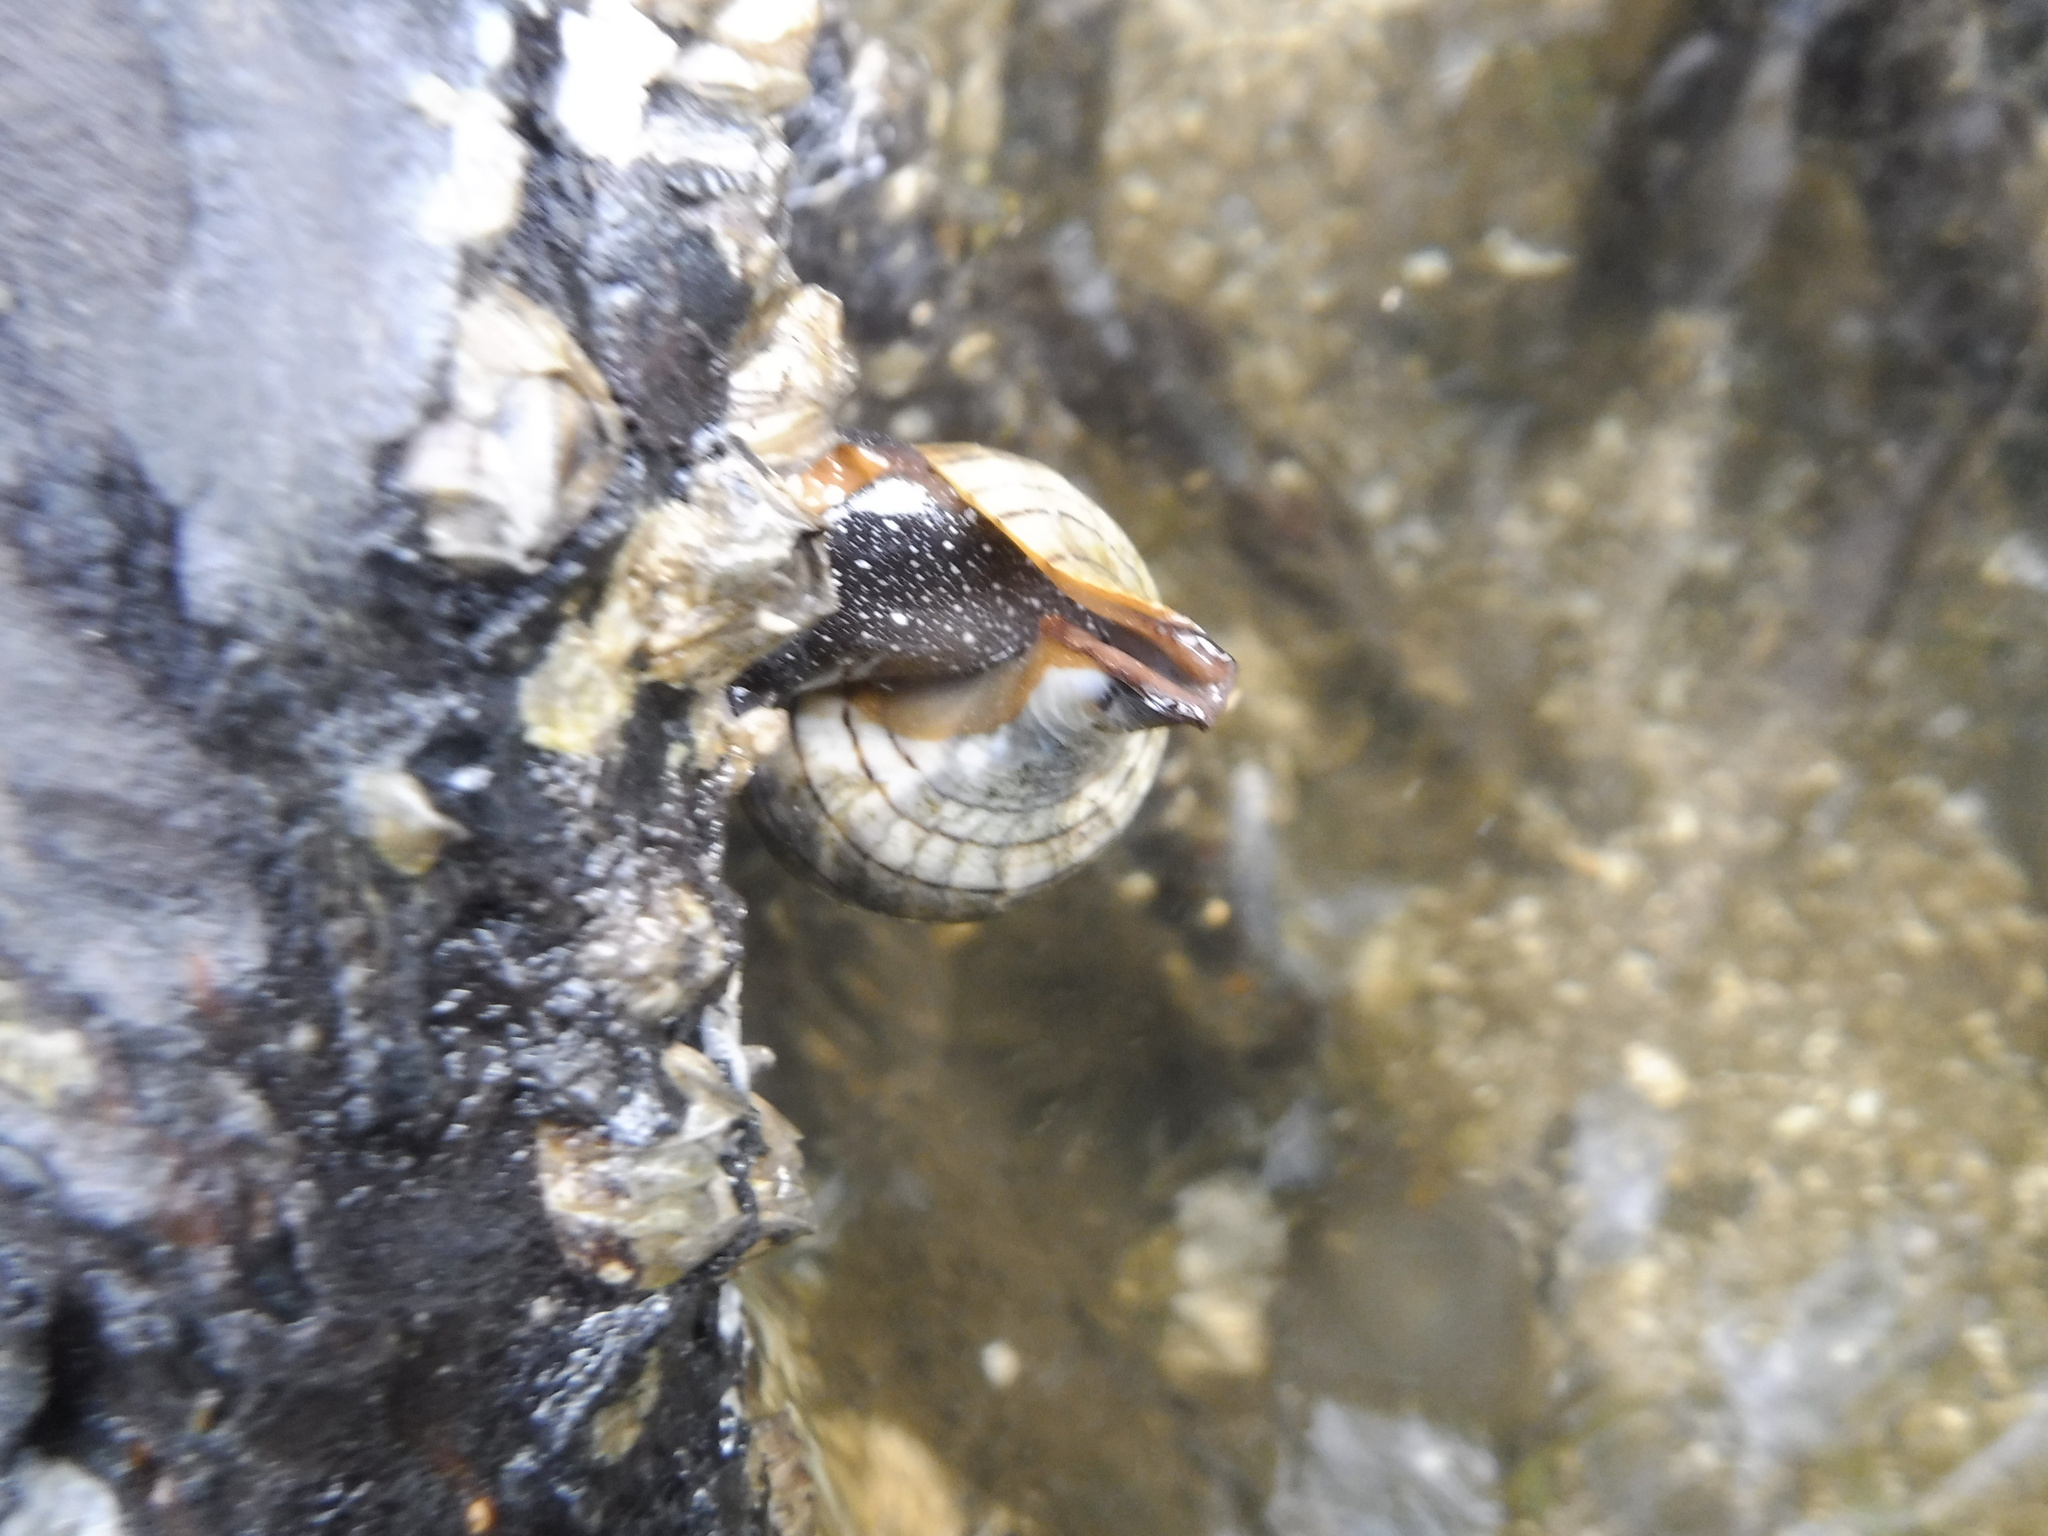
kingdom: Animalia
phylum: Mollusca
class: Gastropoda
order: Neogastropoda
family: Fasciolariidae
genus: Cinctura
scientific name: Cinctura hunteria
